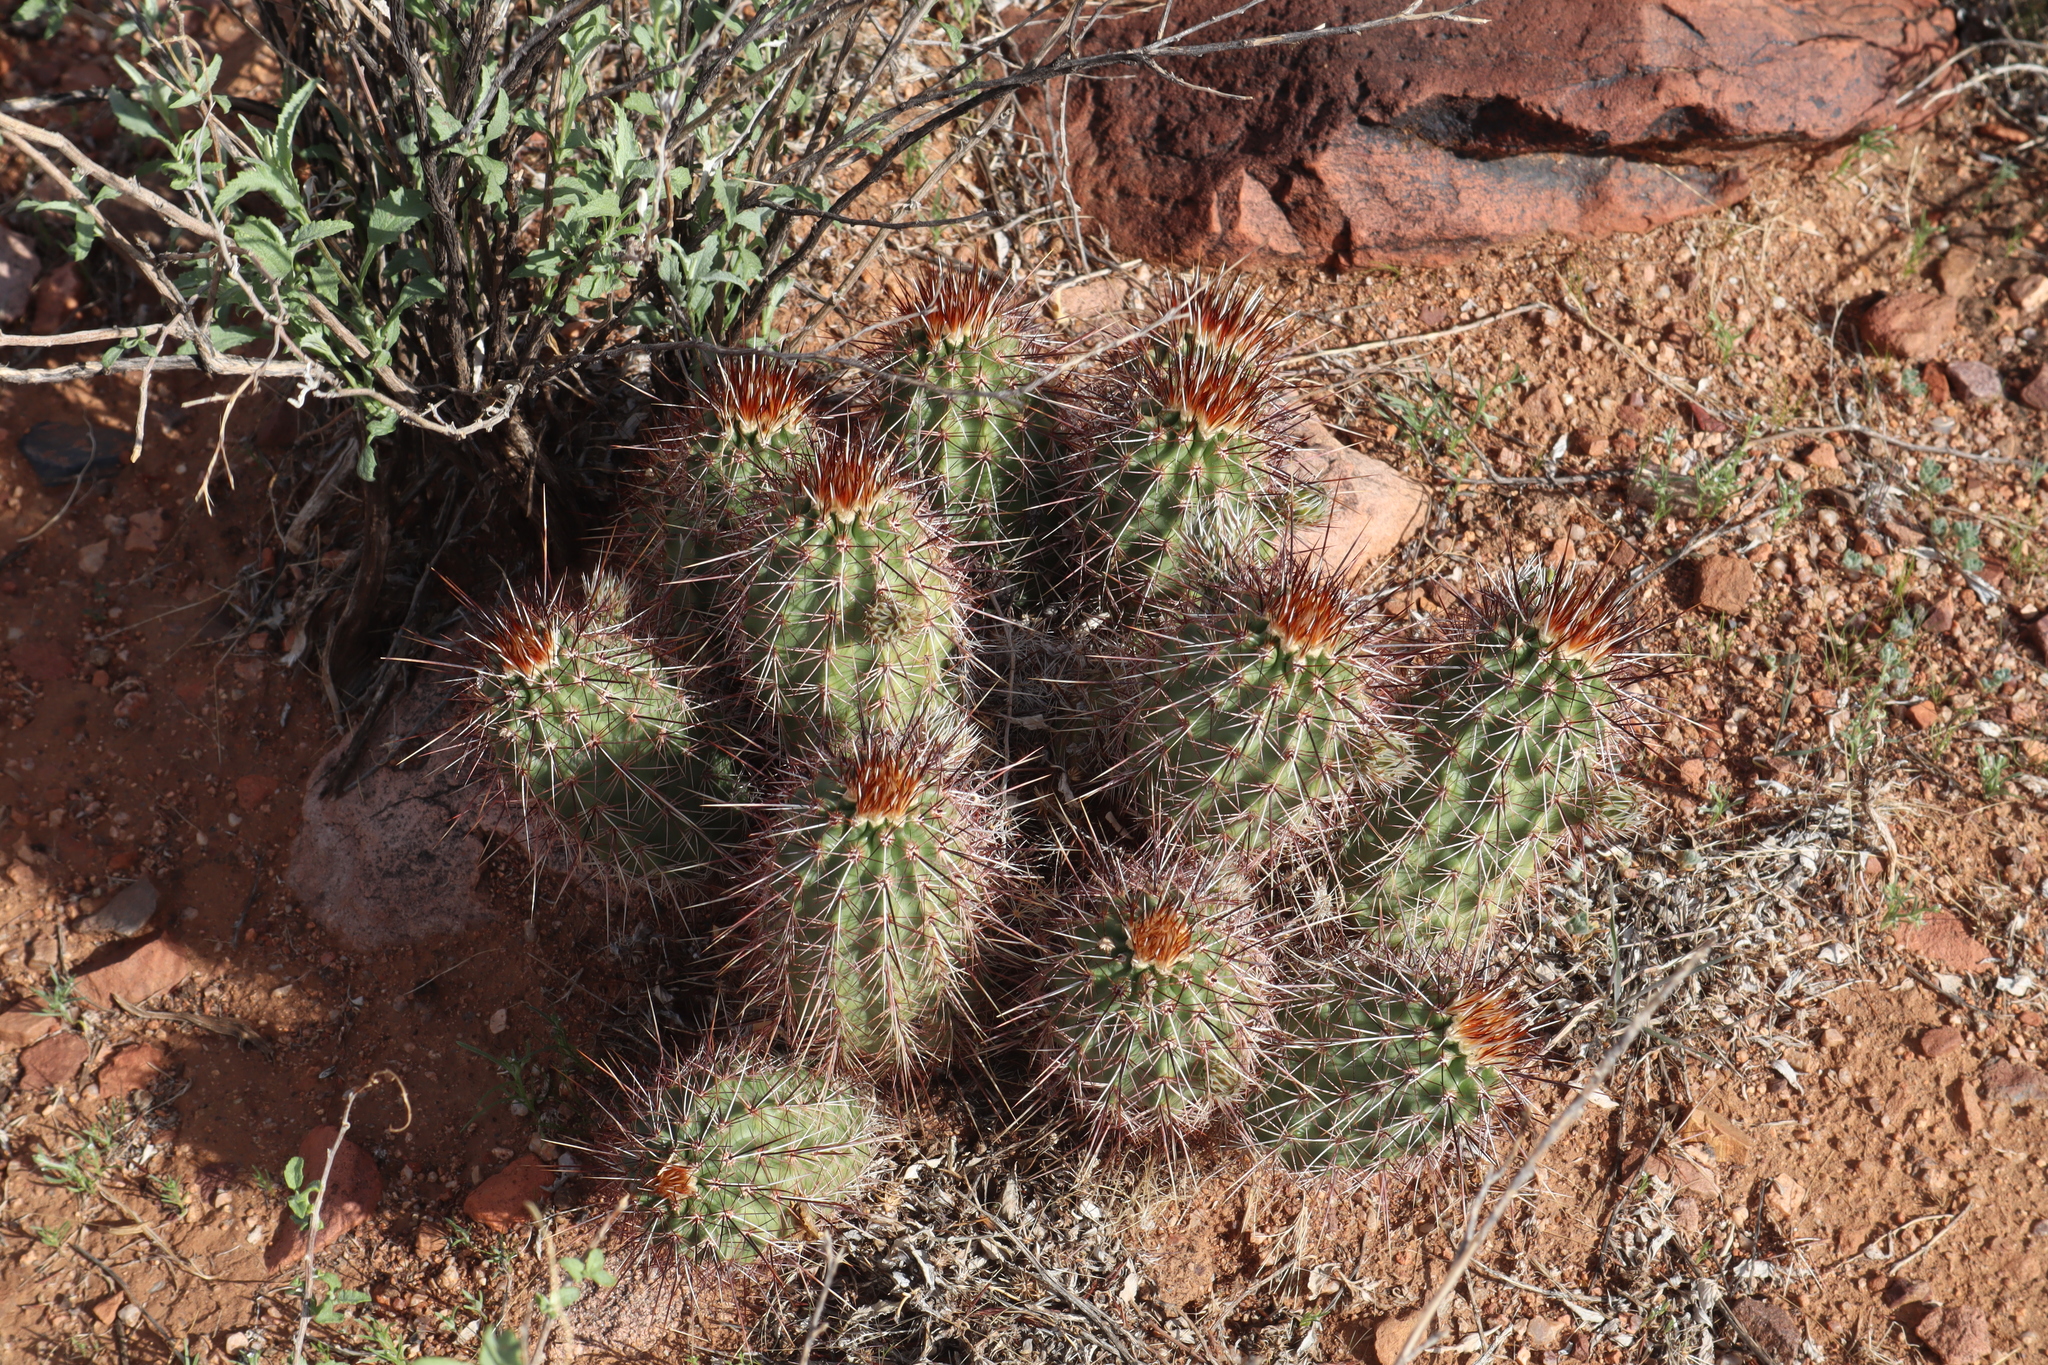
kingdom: Plantae
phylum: Tracheophyta
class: Magnoliopsida
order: Caryophyllales
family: Cactaceae
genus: Echinocereus
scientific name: Echinocereus fasciculatus
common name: Bundle hedgehog
